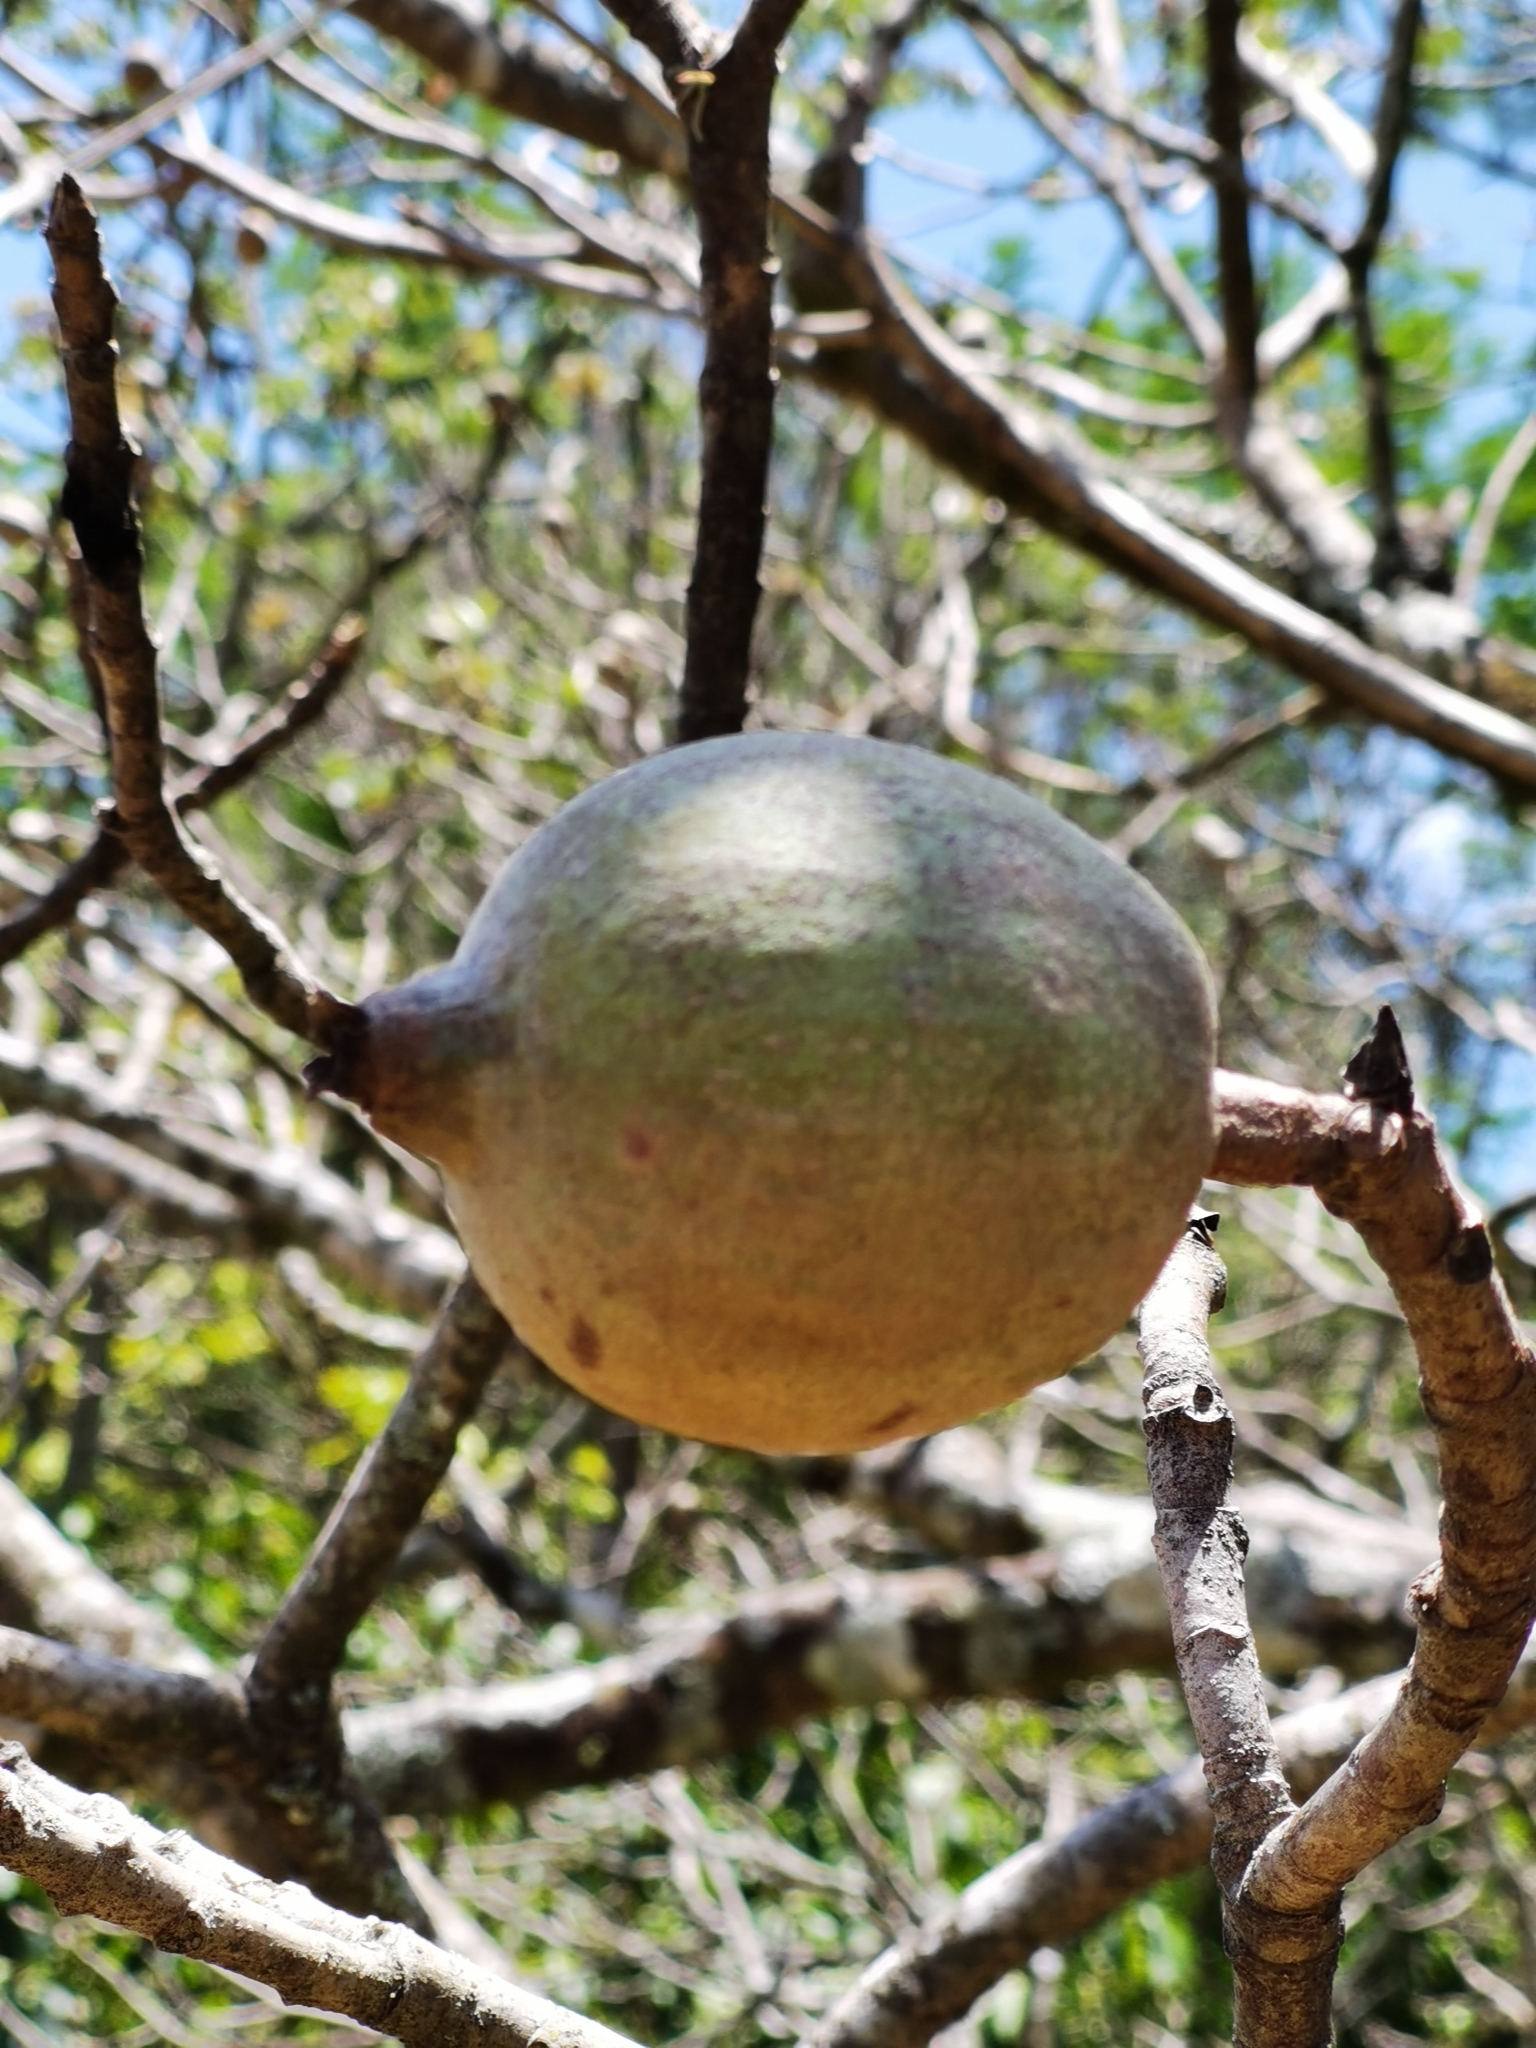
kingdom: Plantae
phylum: Tracheophyta
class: Magnoliopsida
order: Gentianales
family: Rubiaceae
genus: Genipa
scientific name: Genipa americana
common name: Genipap
